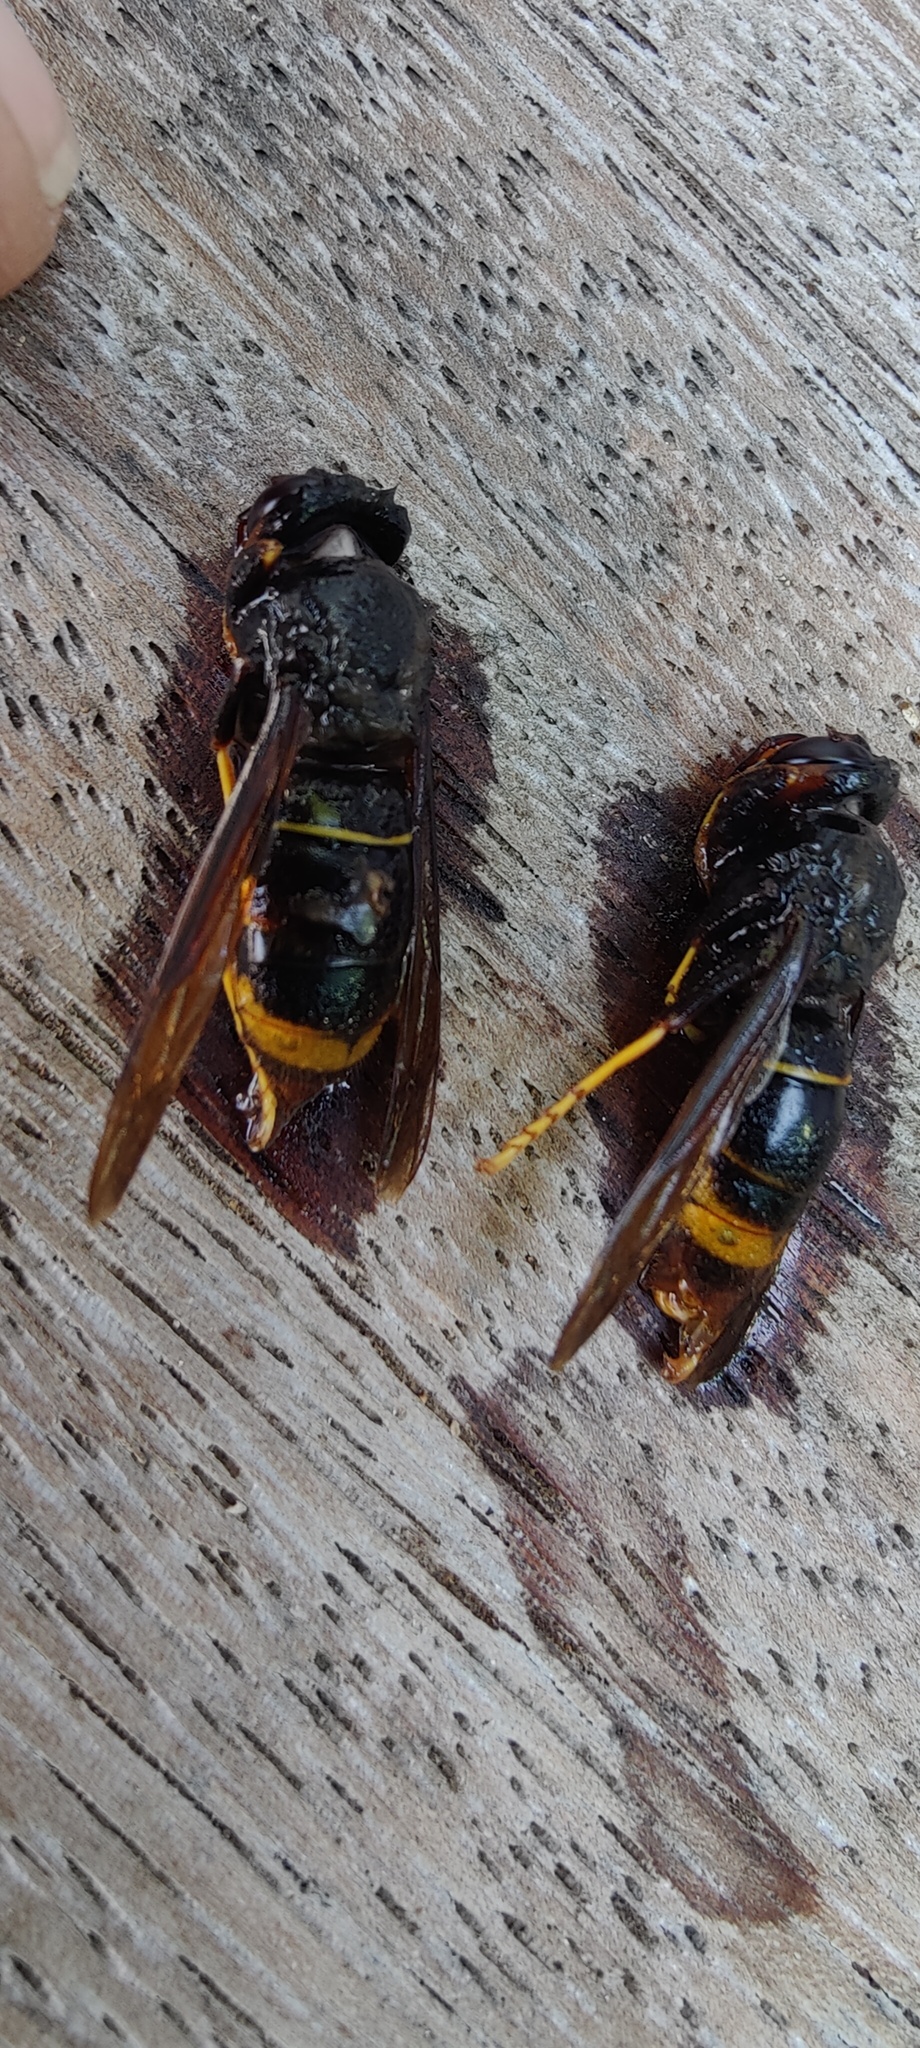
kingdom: Animalia
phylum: Arthropoda
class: Insecta
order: Hymenoptera
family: Vespidae
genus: Vespa
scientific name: Vespa velutina
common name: Asian hornet
